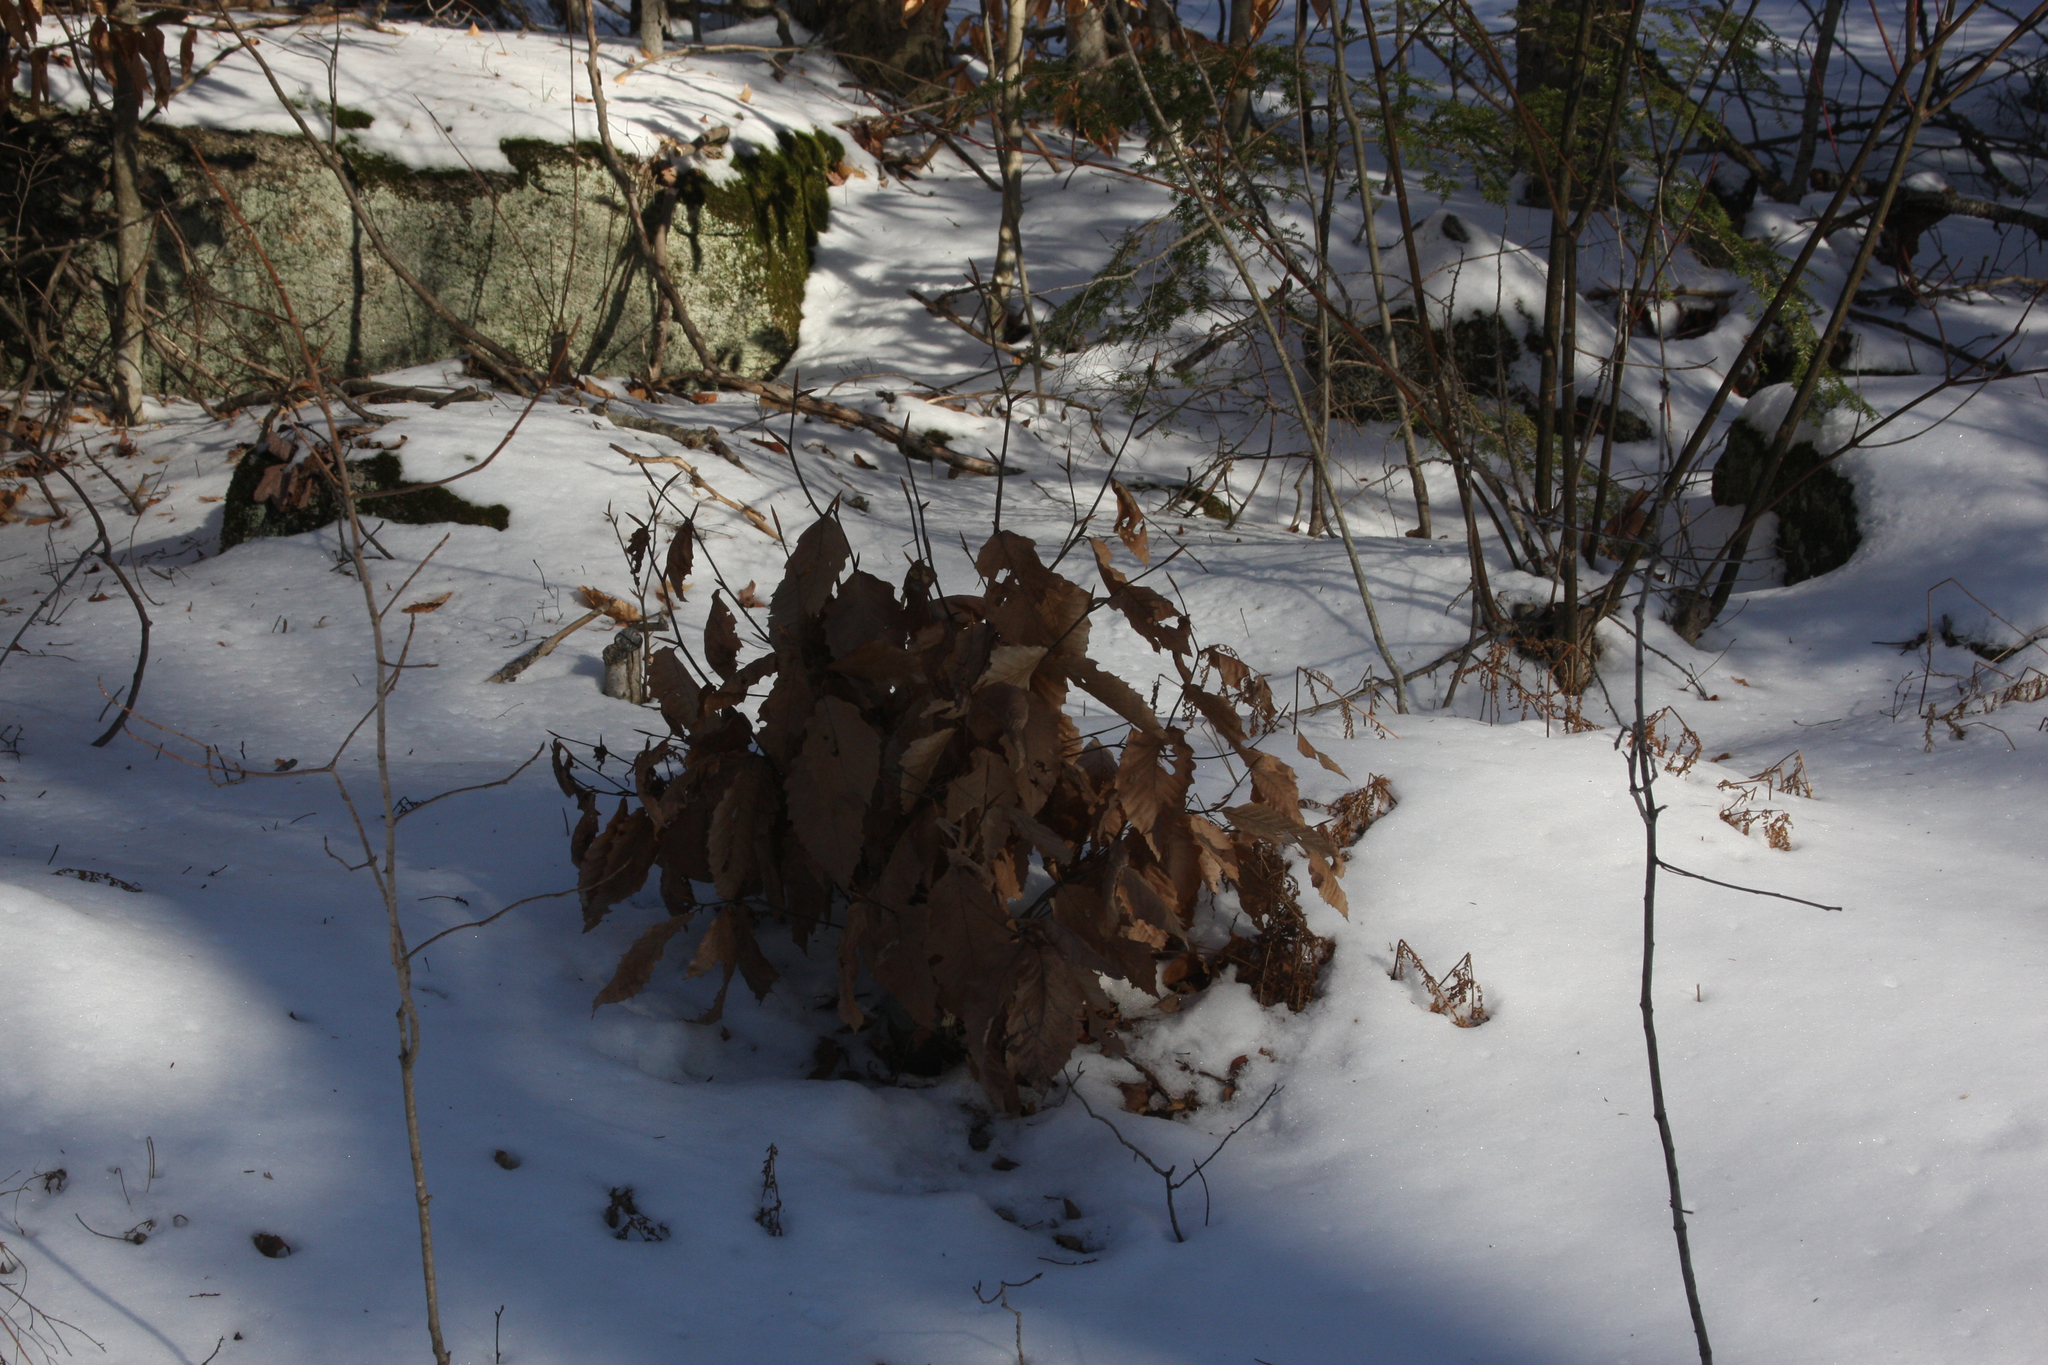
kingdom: Plantae
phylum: Tracheophyta
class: Magnoliopsida
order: Fagales
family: Fagaceae
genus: Fagus
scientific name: Fagus grandifolia
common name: American beech
